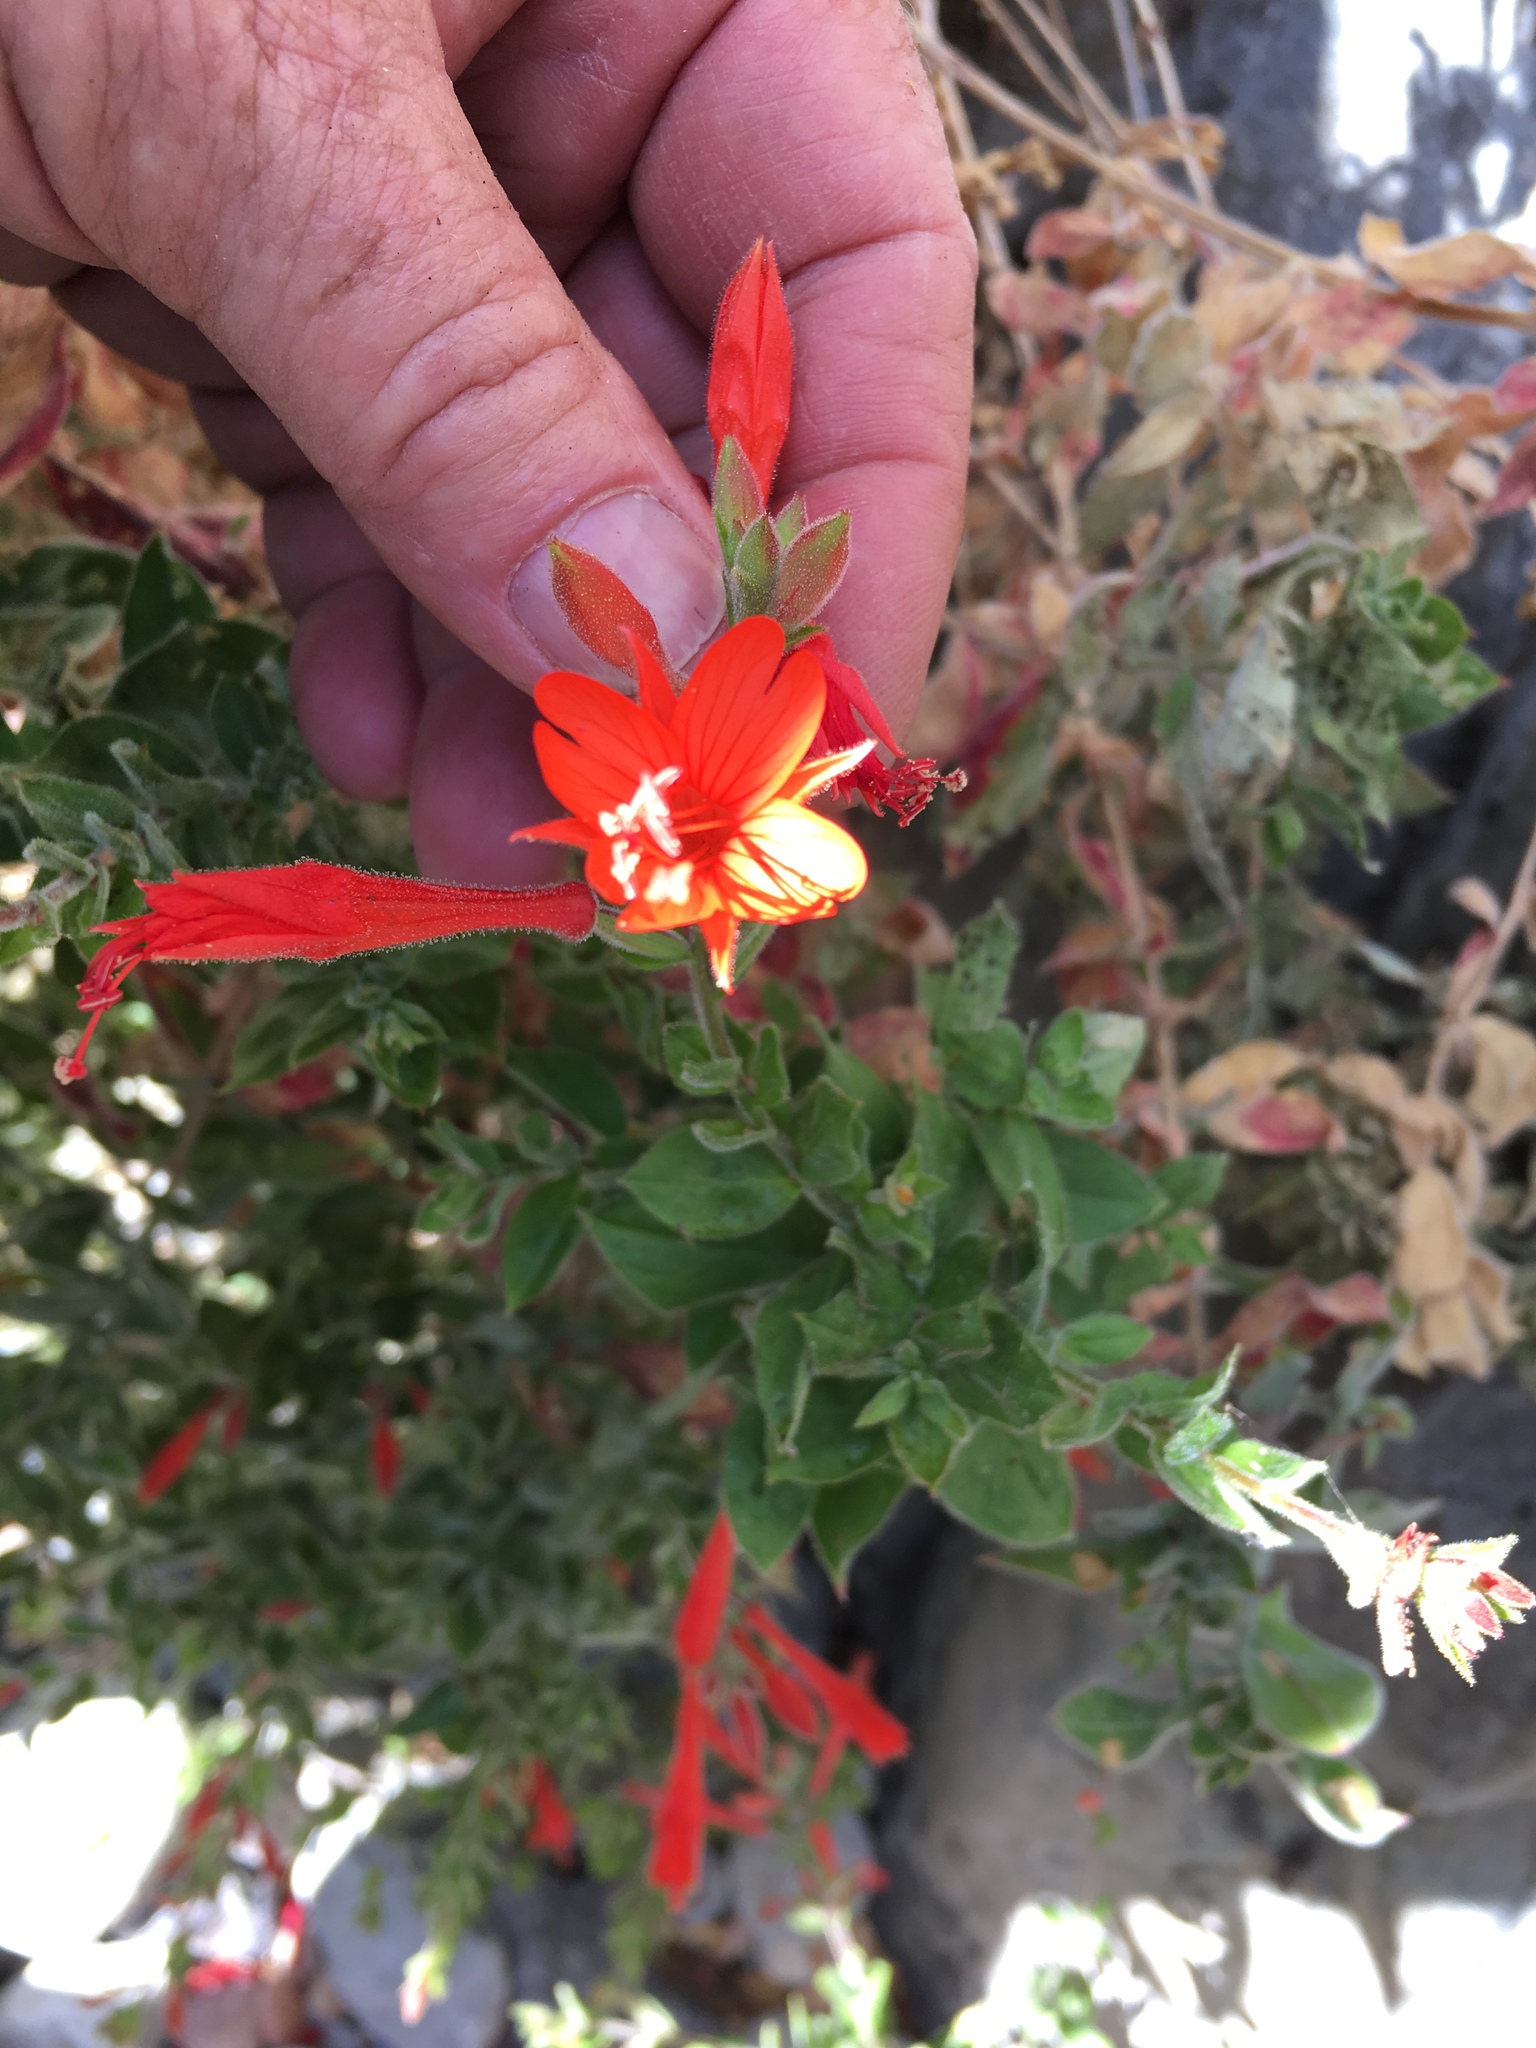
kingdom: Plantae
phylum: Tracheophyta
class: Magnoliopsida
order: Myrtales
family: Onagraceae
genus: Epilobium
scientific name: Epilobium canum
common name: California-fuchsia
